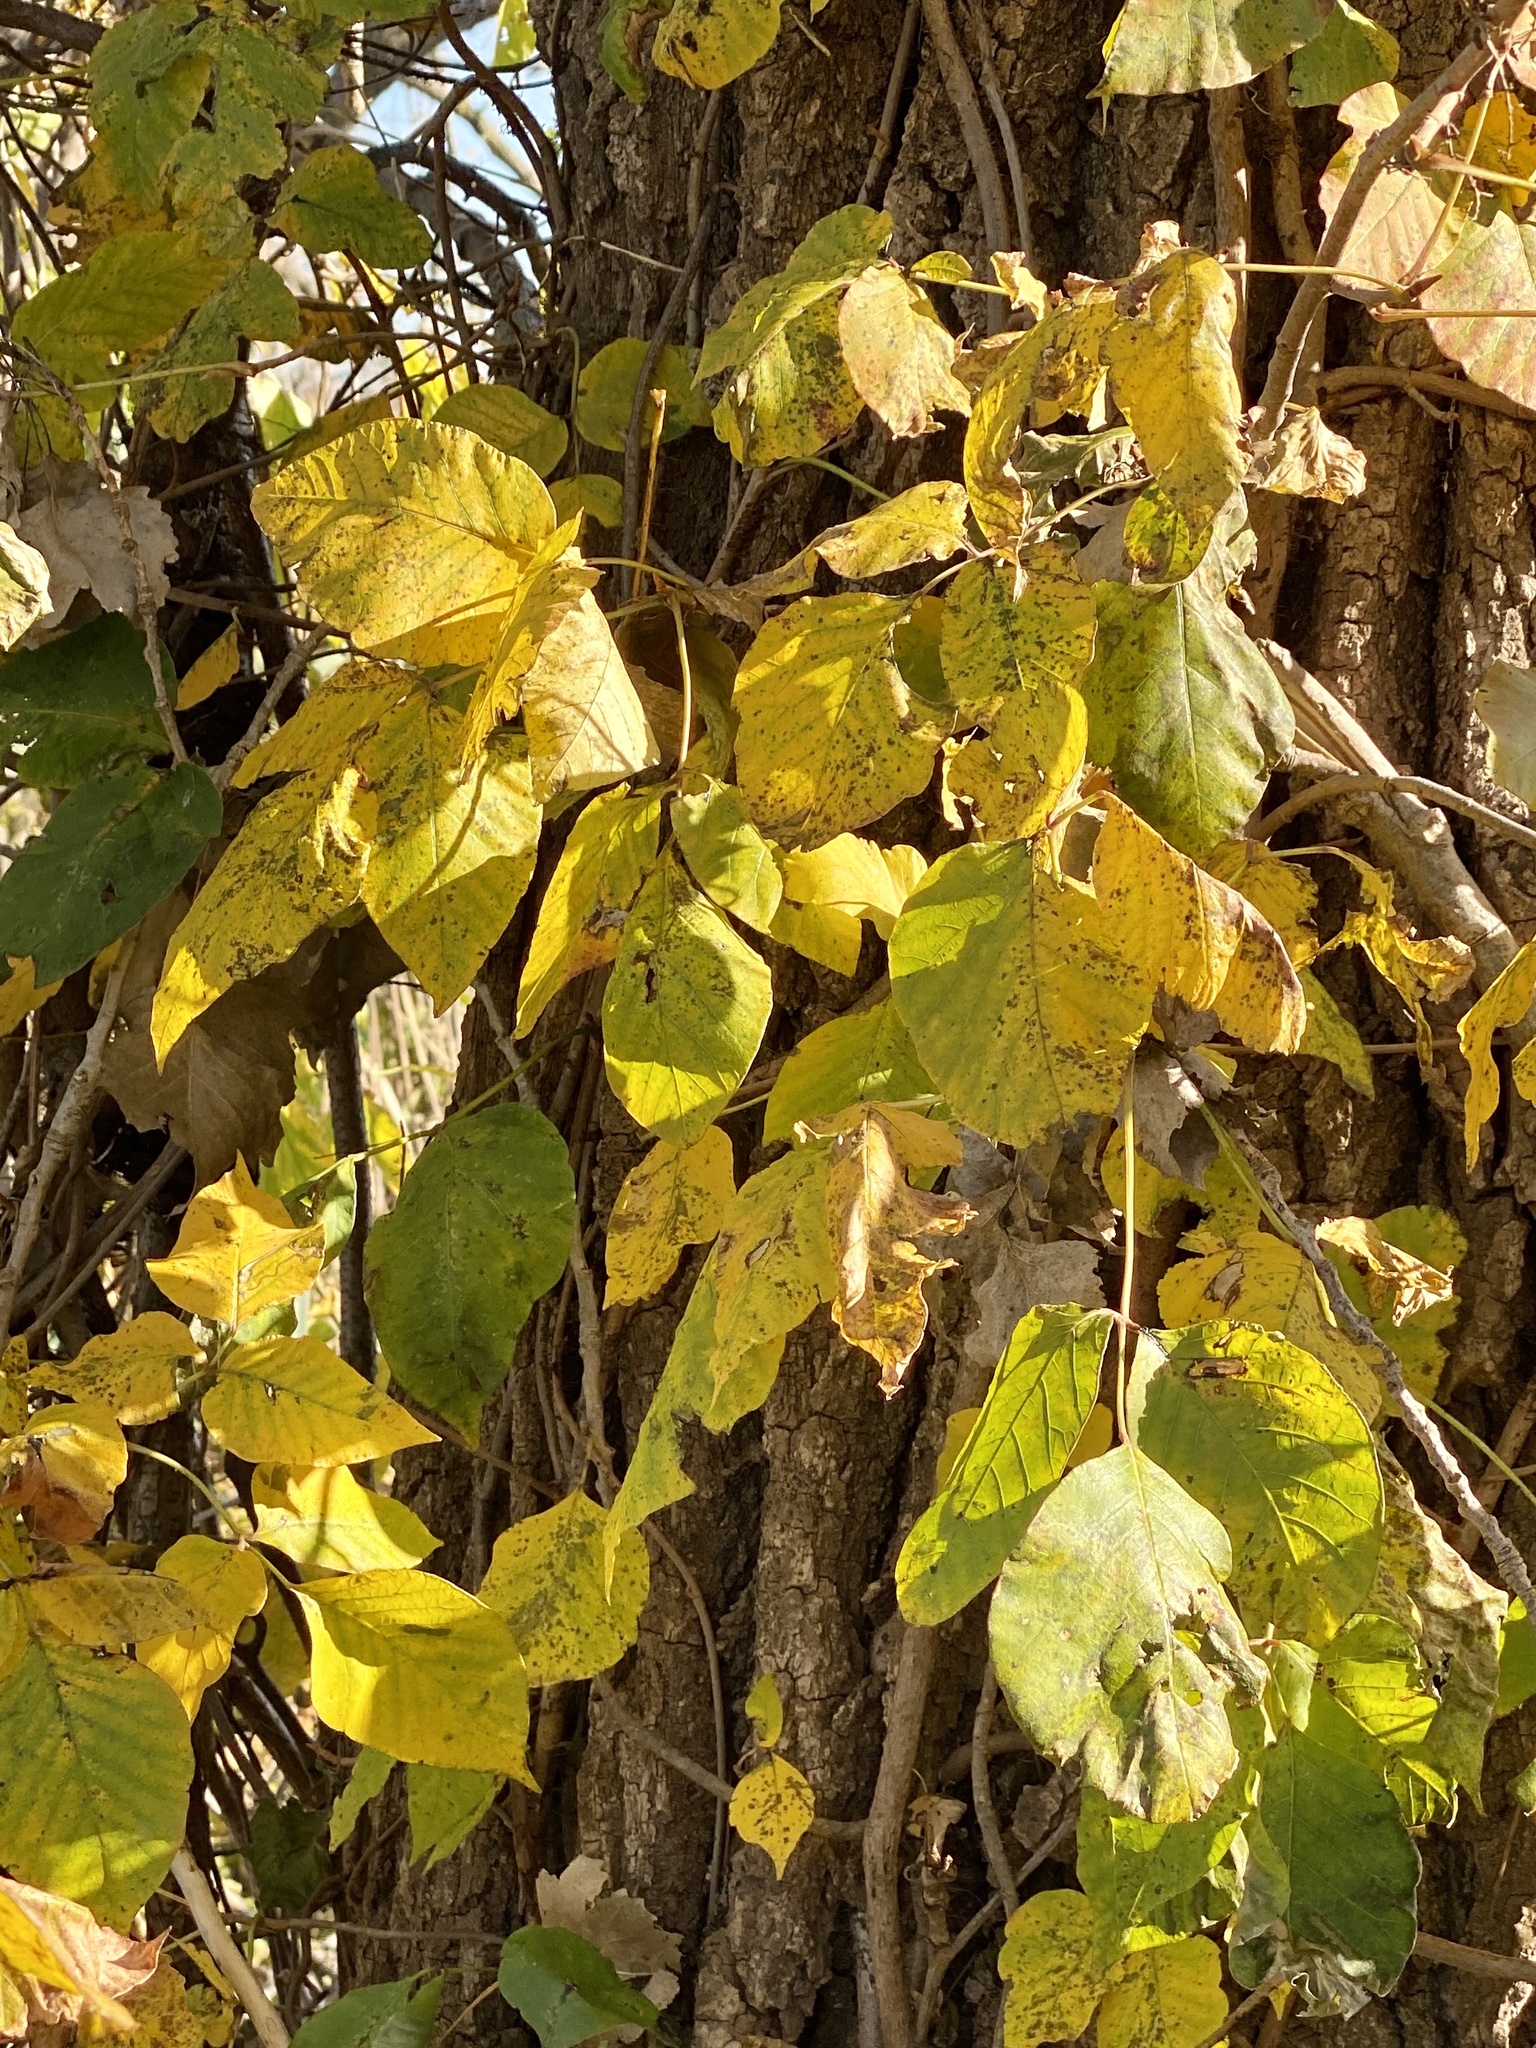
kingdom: Plantae
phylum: Tracheophyta
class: Magnoliopsida
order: Sapindales
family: Anacardiaceae
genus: Toxicodendron
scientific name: Toxicodendron radicans
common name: Poison ivy
